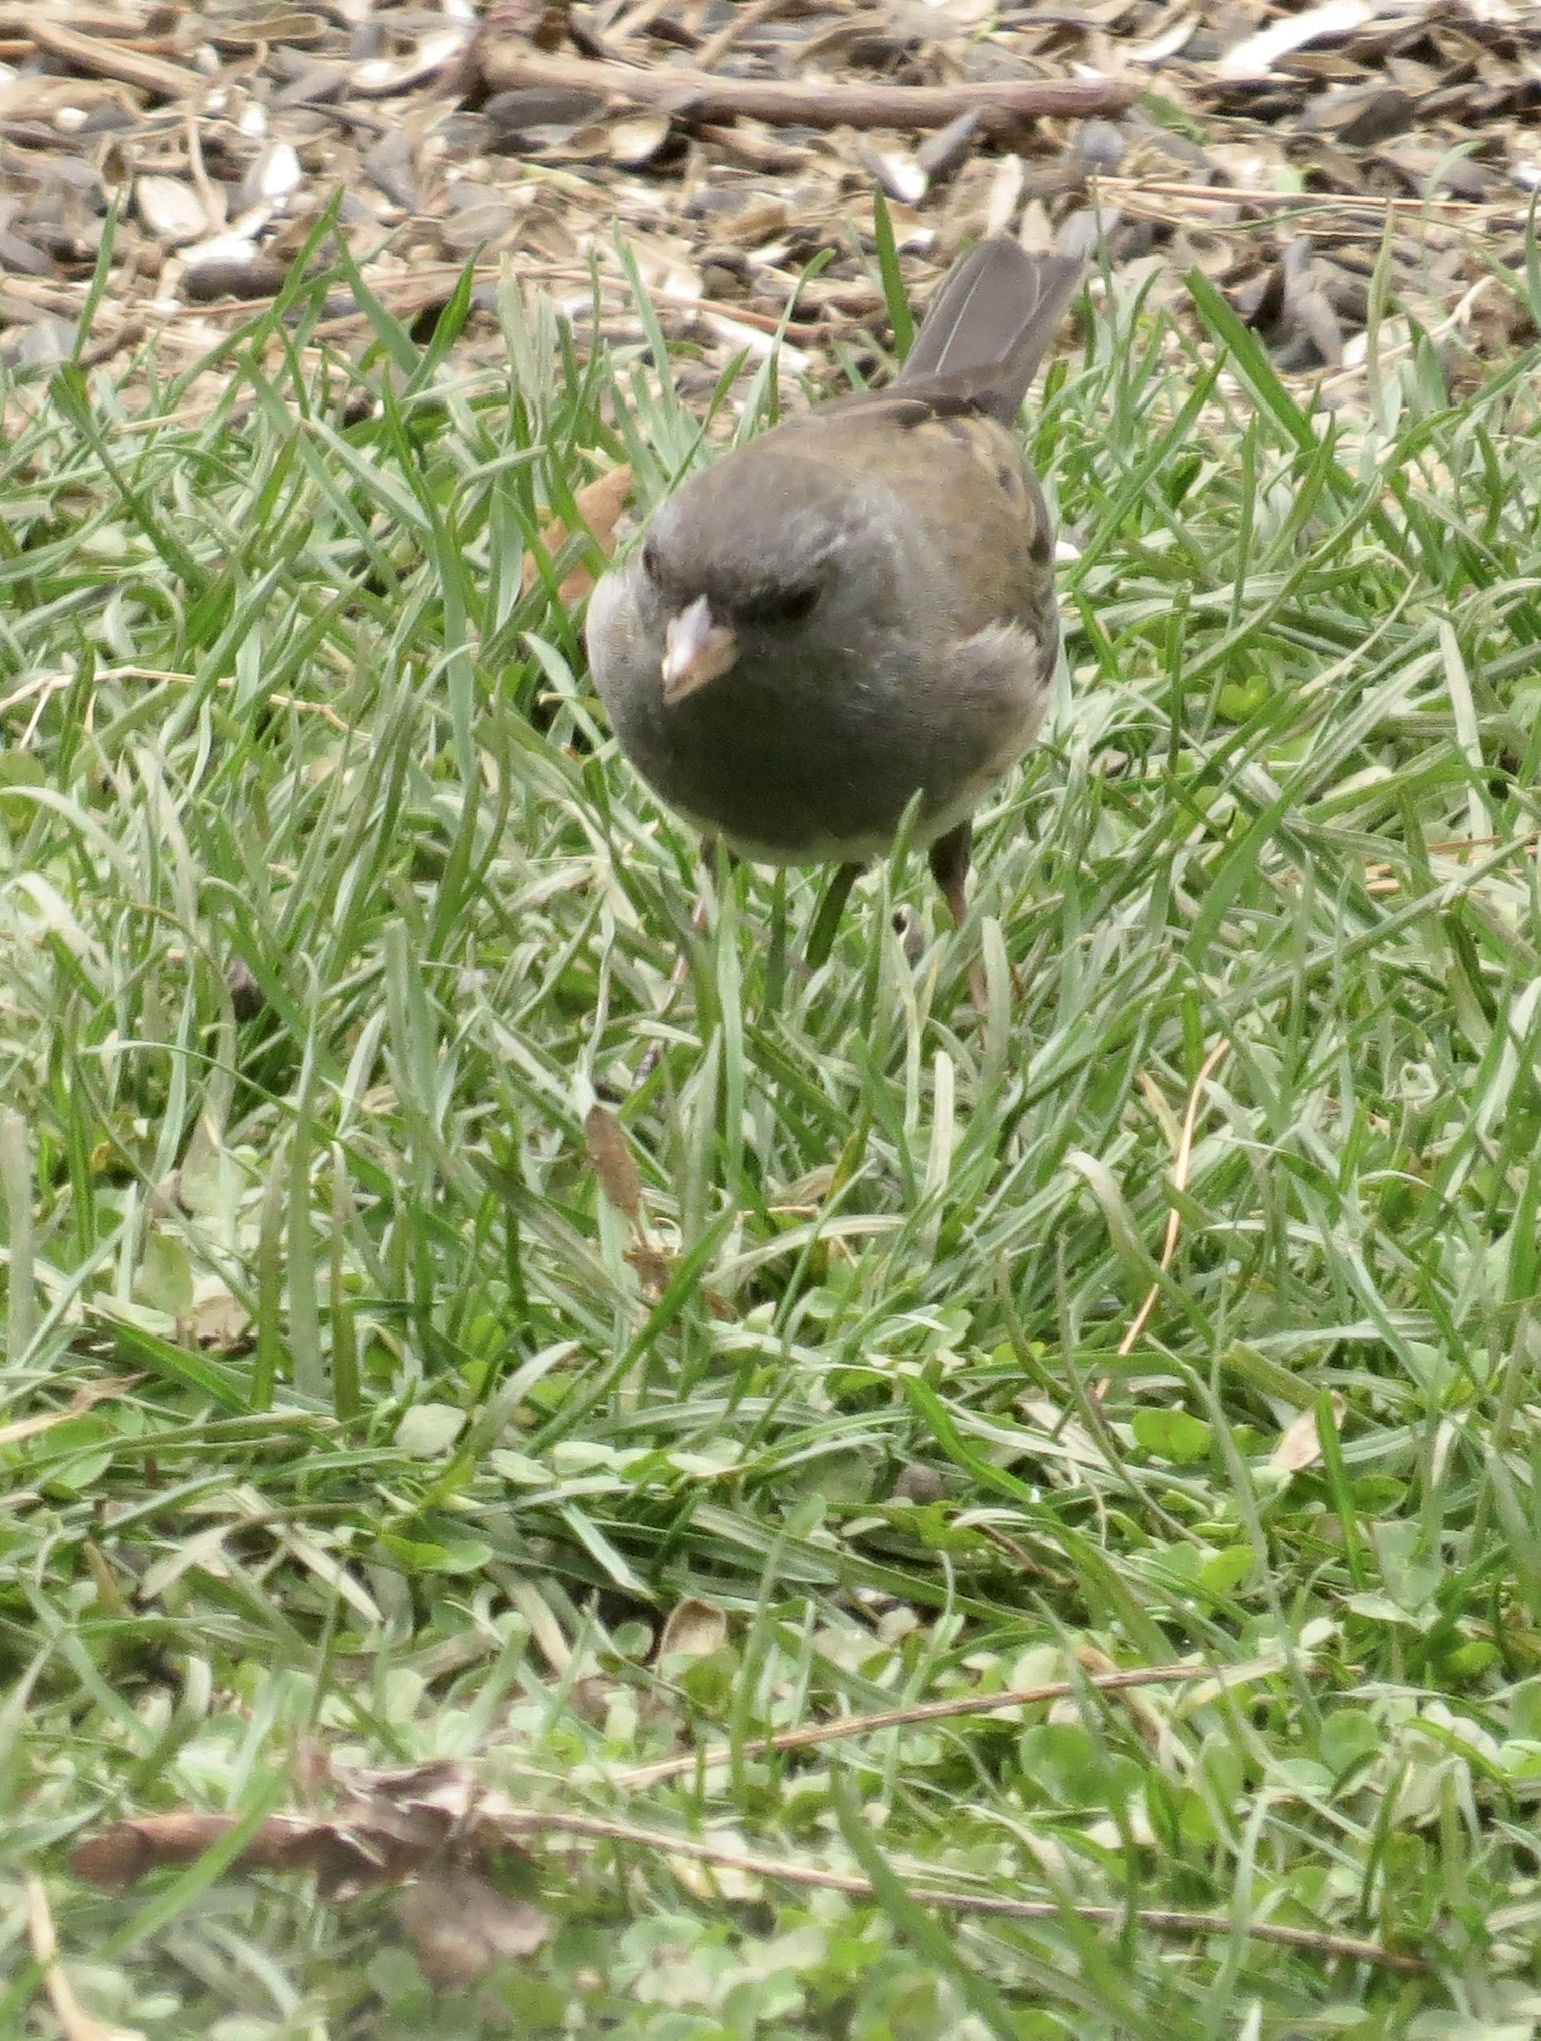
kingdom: Animalia
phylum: Chordata
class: Aves
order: Passeriformes
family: Passerellidae
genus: Junco
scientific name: Junco hyemalis
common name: Dark-eyed junco
